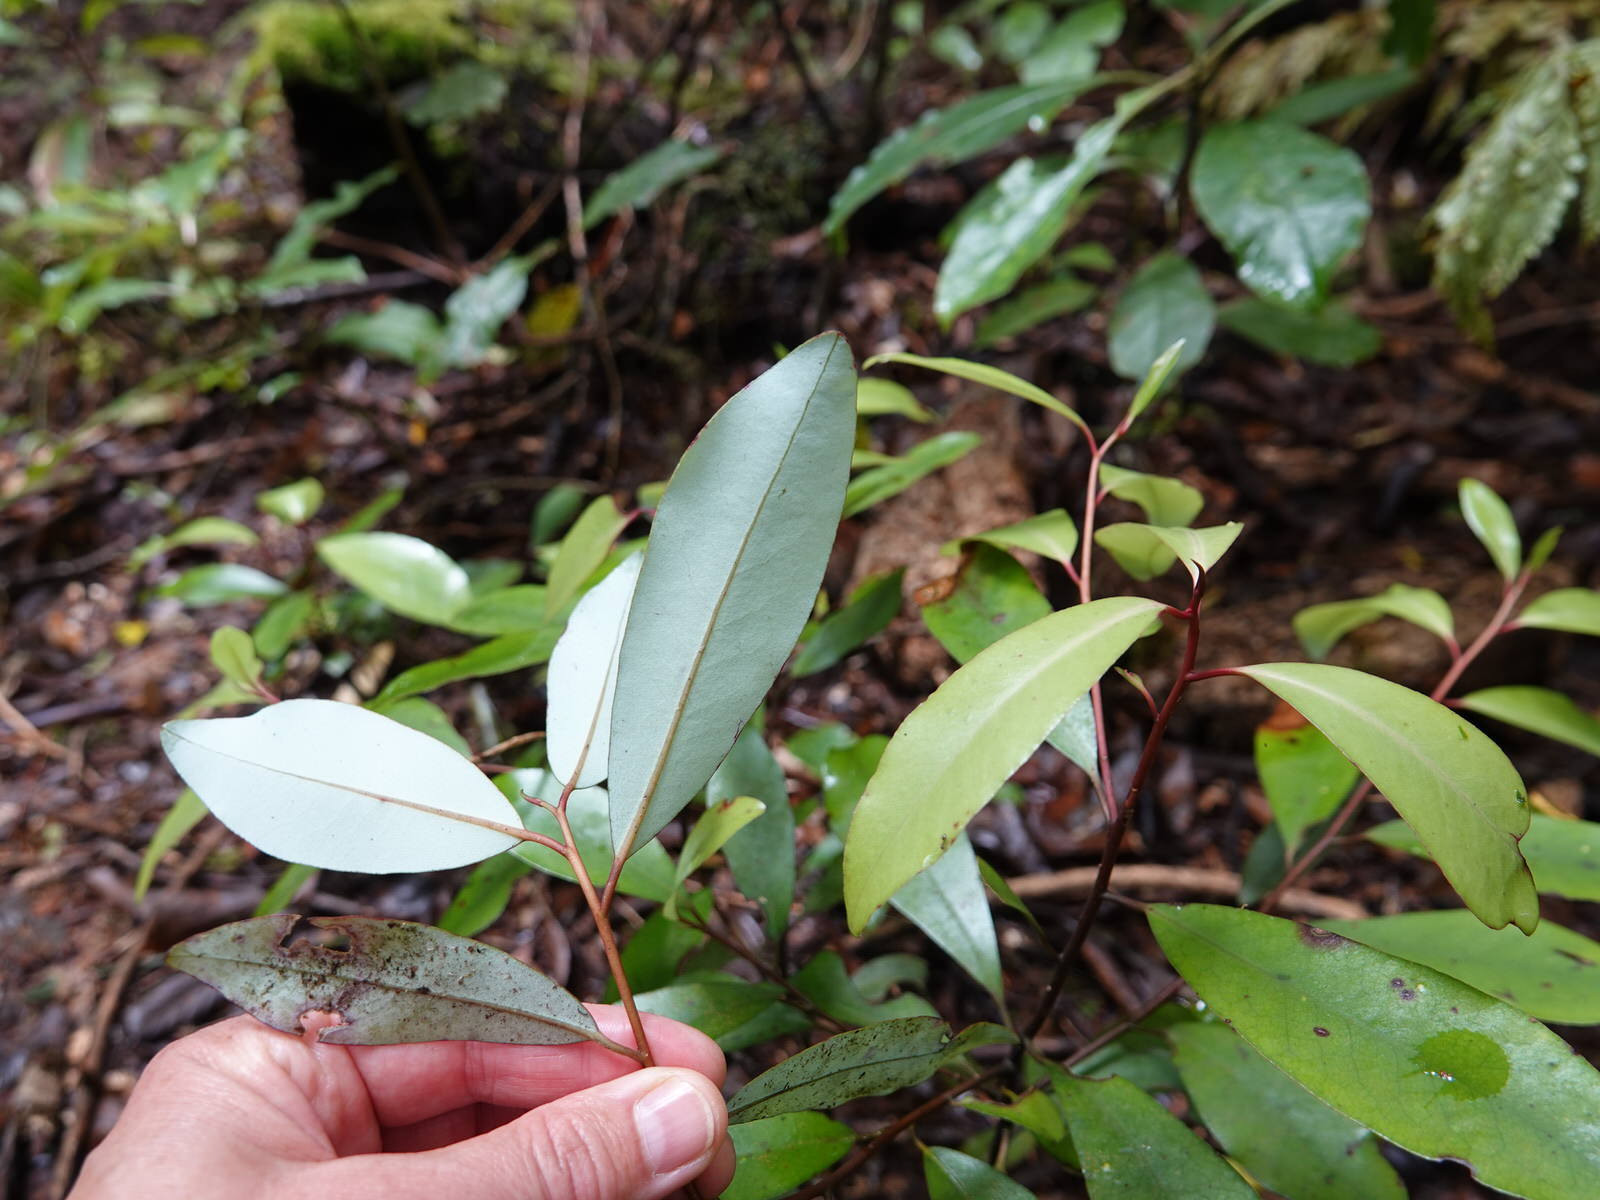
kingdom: Plantae
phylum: Tracheophyta
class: Magnoliopsida
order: Canellales
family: Winteraceae
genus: Pseudowintera
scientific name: Pseudowintera axillaris
